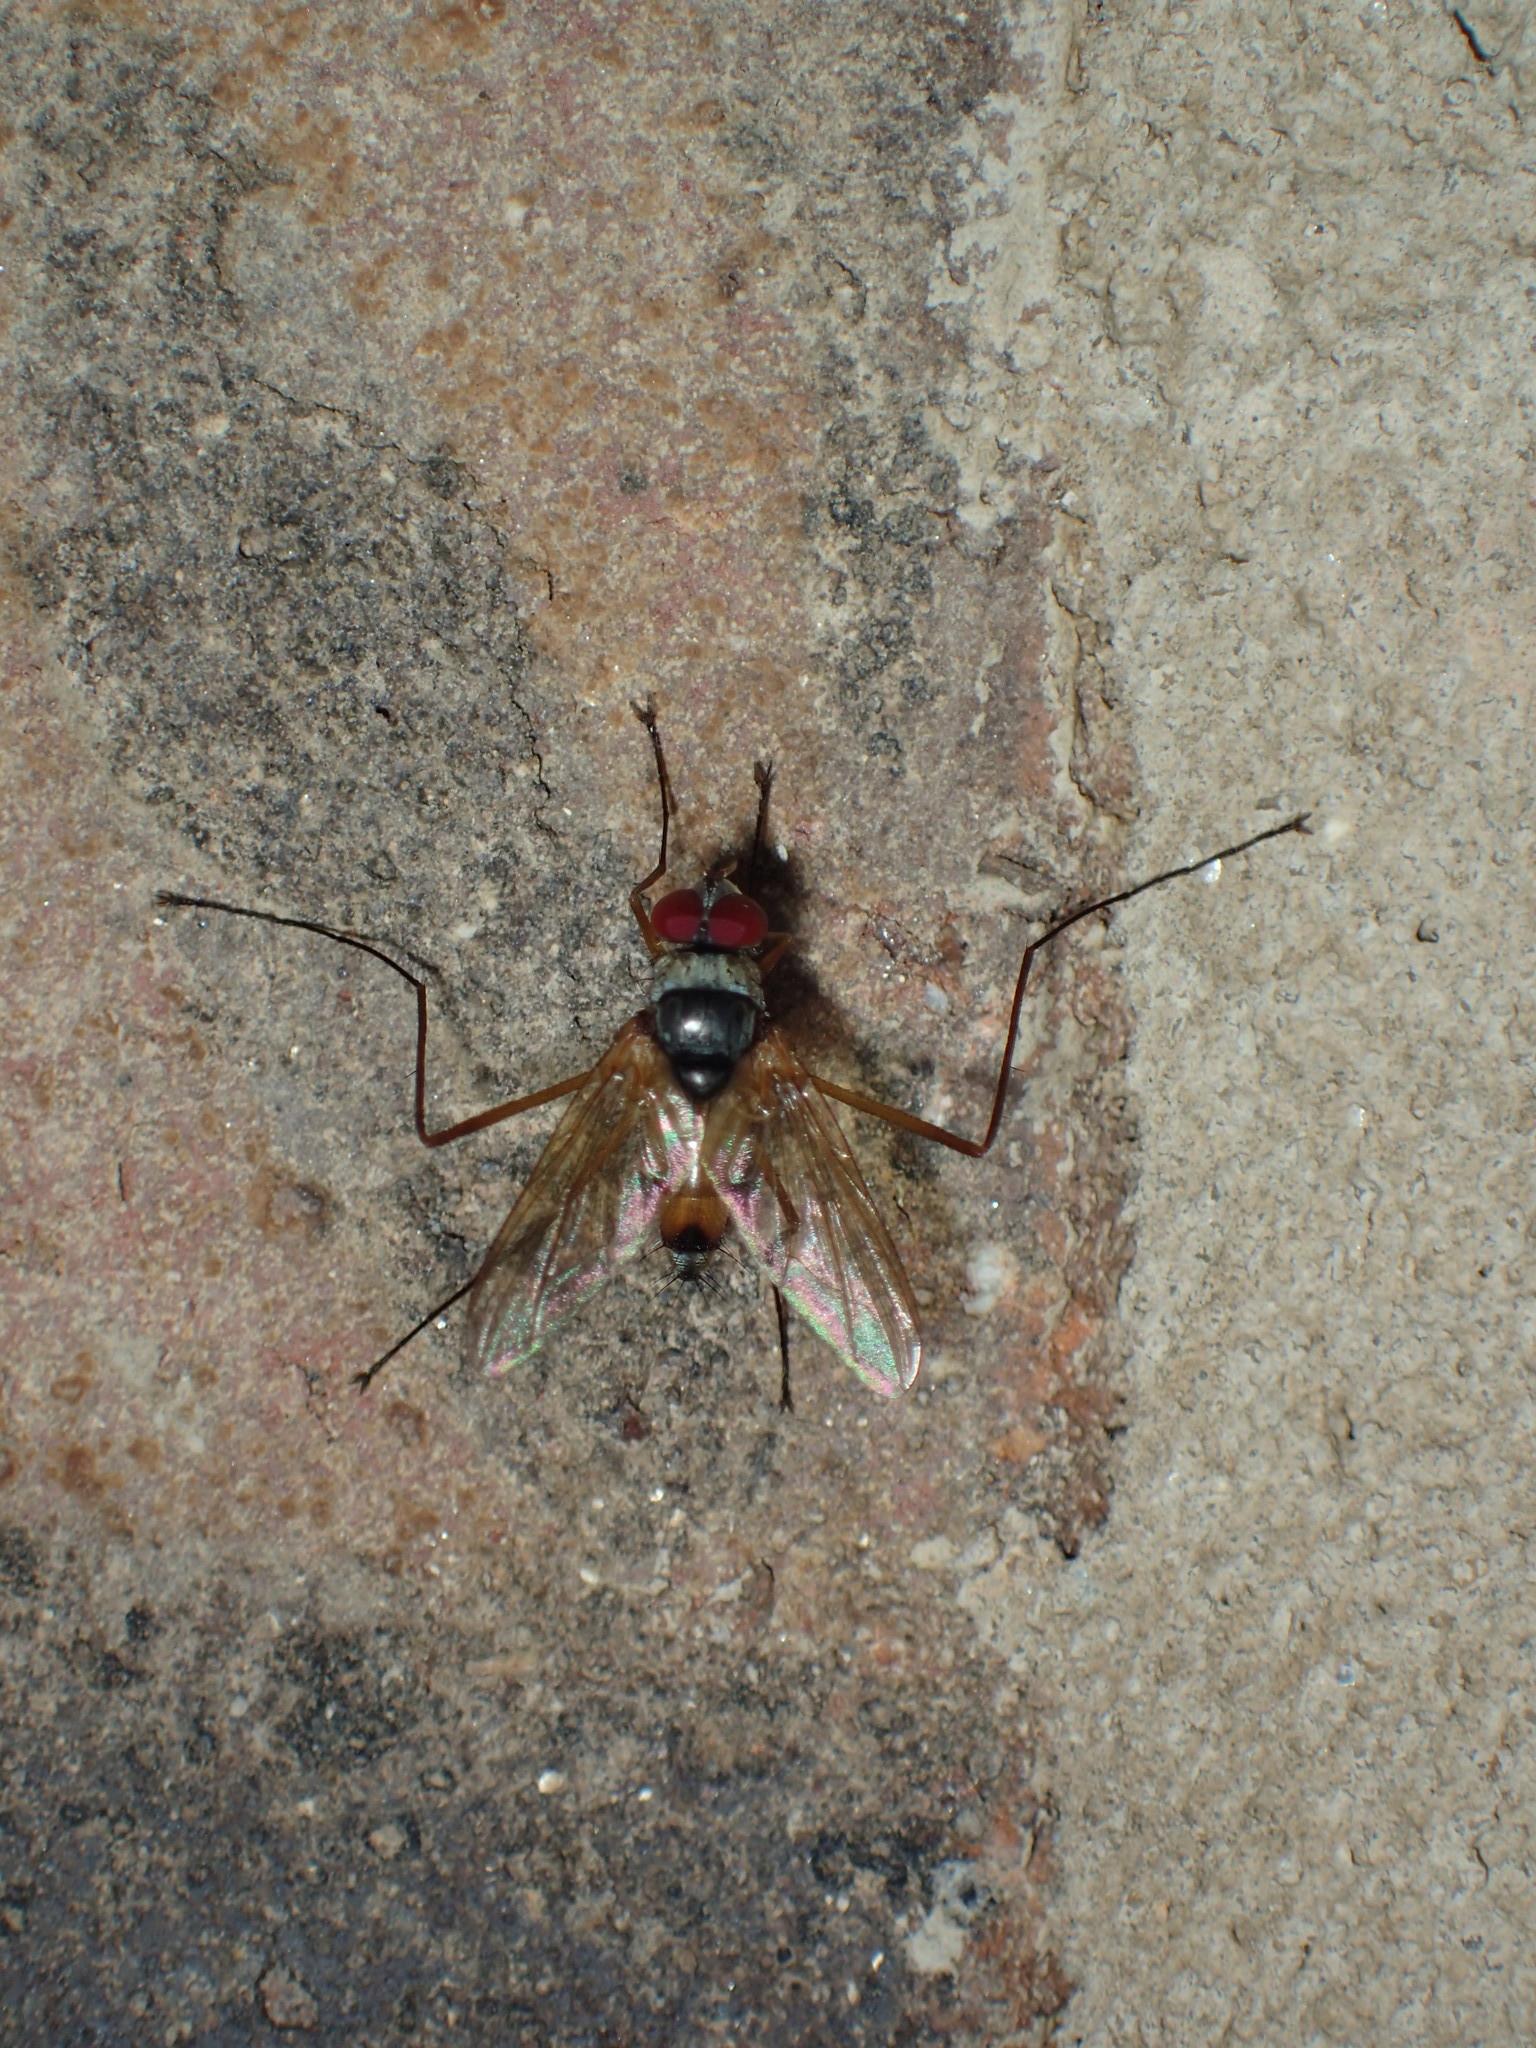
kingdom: Animalia
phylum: Arthropoda
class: Insecta
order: Diptera
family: Tachinidae
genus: Cholomyia
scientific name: Cholomyia inaequipes
